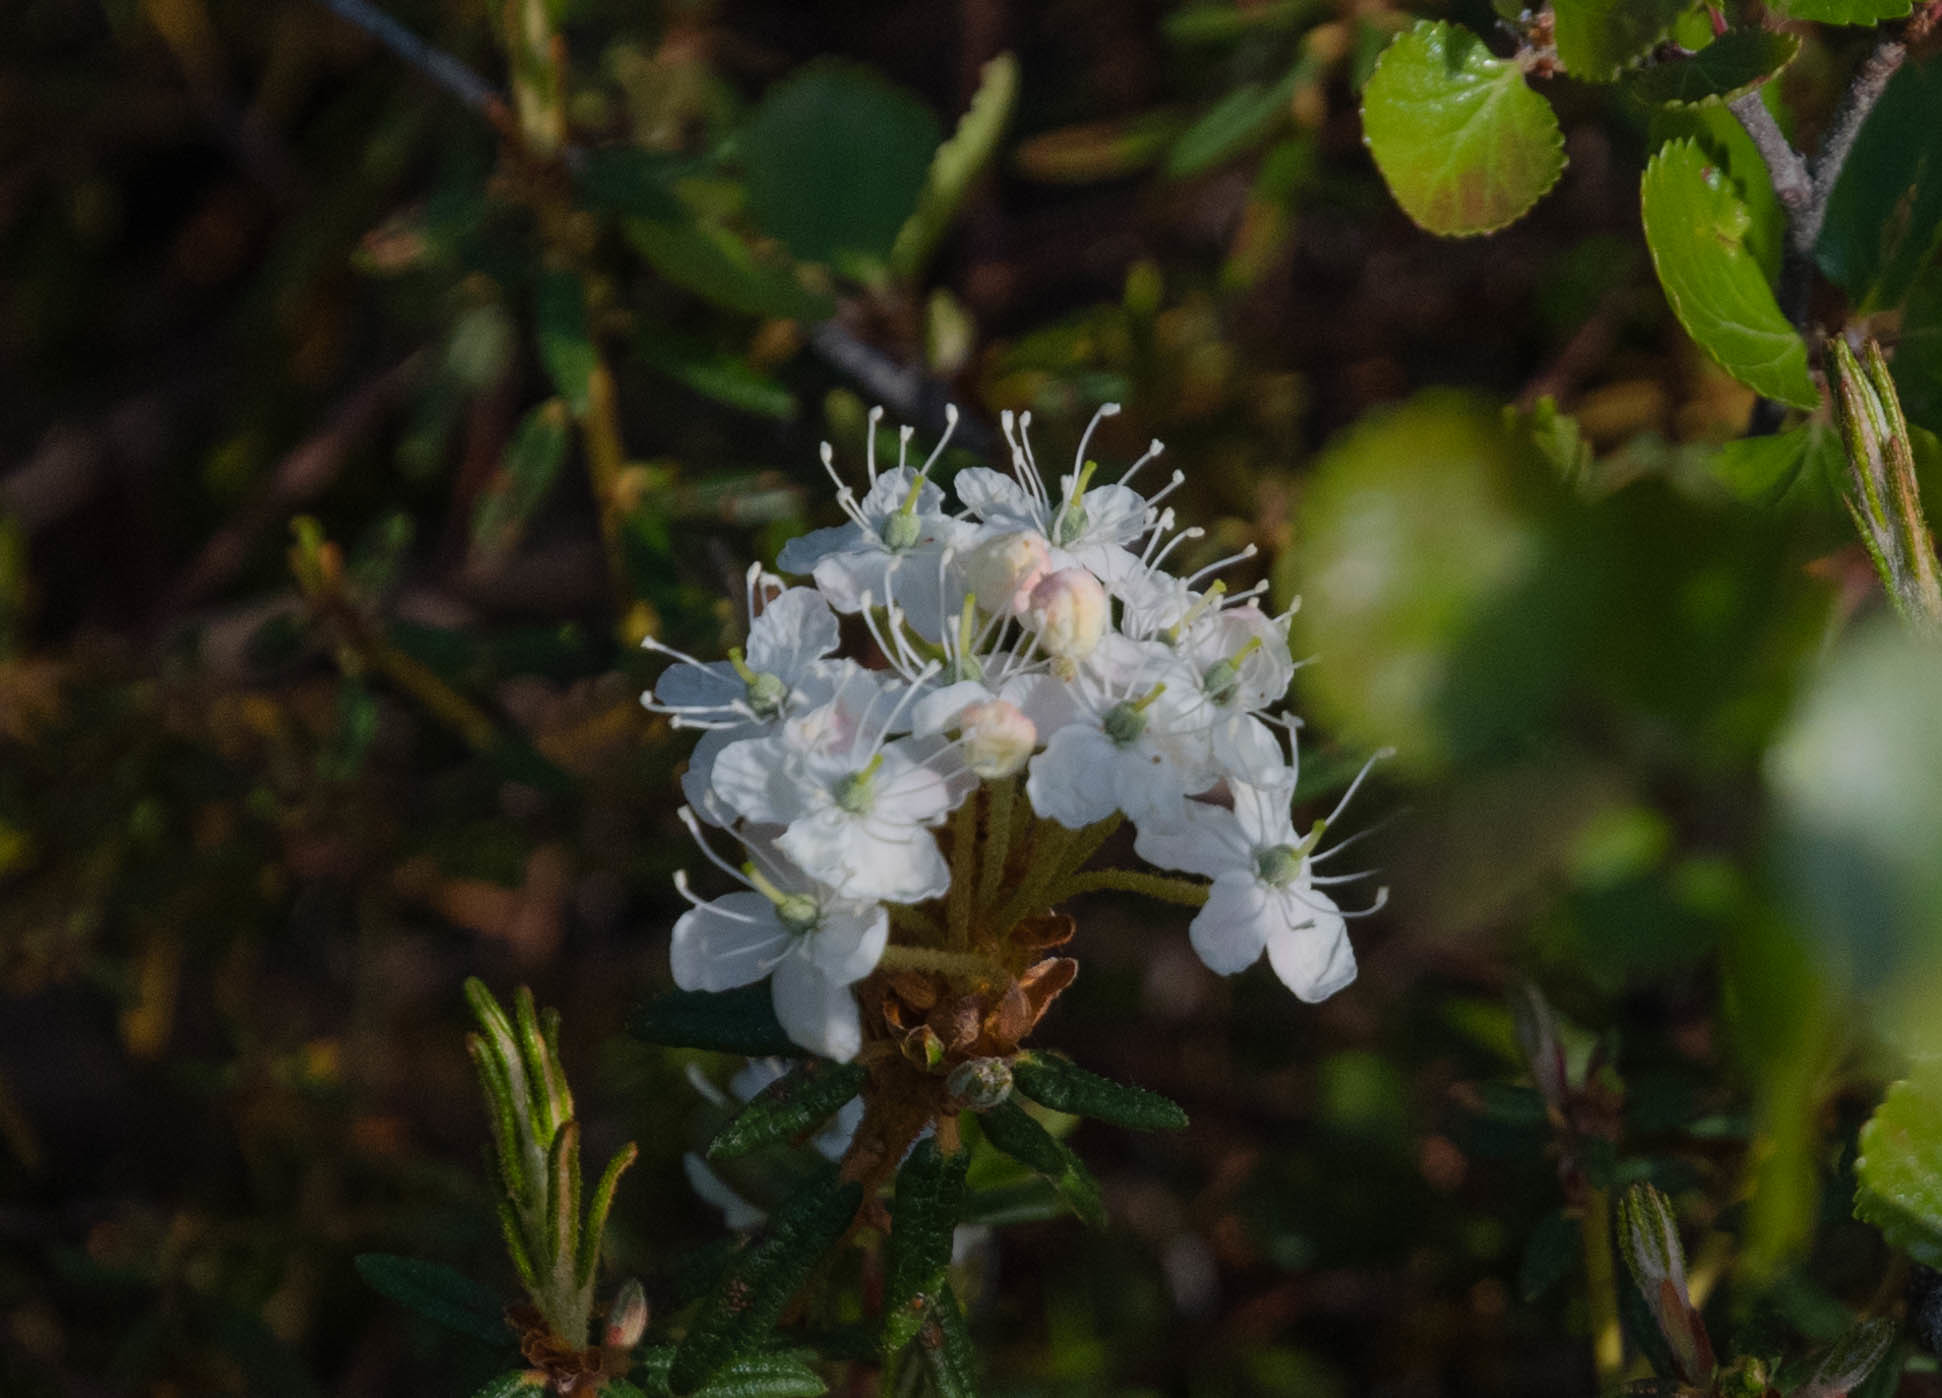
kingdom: Plantae
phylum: Tracheophyta
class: Magnoliopsida
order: Ericales
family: Ericaceae
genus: Rhododendron
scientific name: Rhododendron groenlandicum
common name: Bog labrador tea
